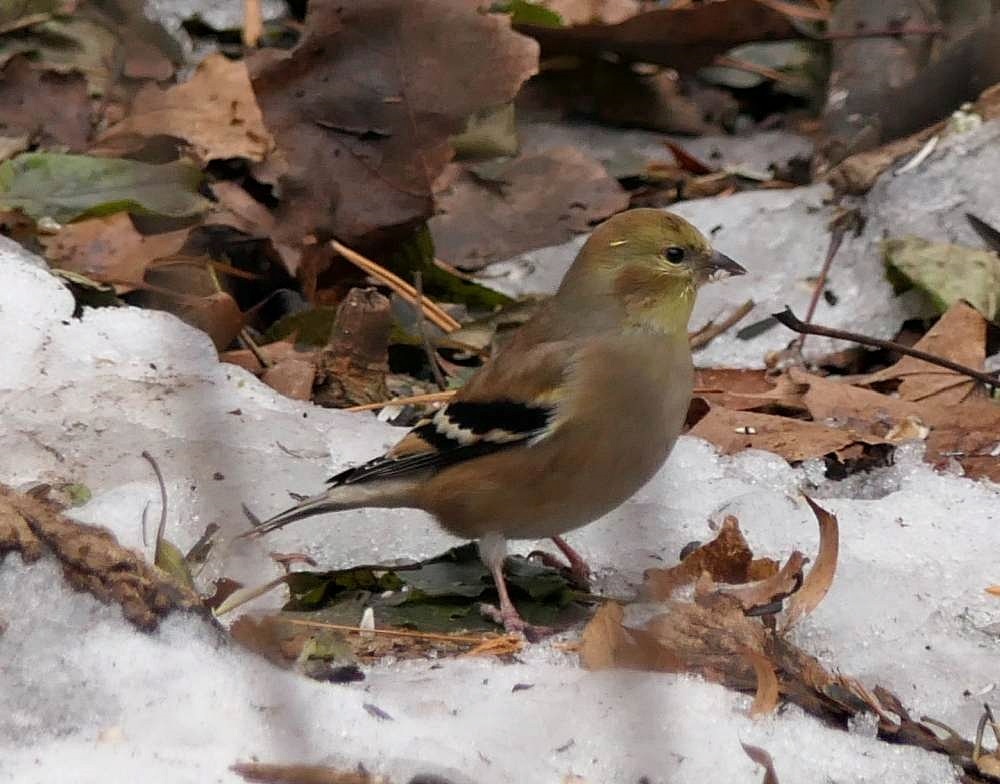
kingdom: Animalia
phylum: Chordata
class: Aves
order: Passeriformes
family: Fringillidae
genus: Spinus
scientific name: Spinus tristis
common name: American goldfinch
